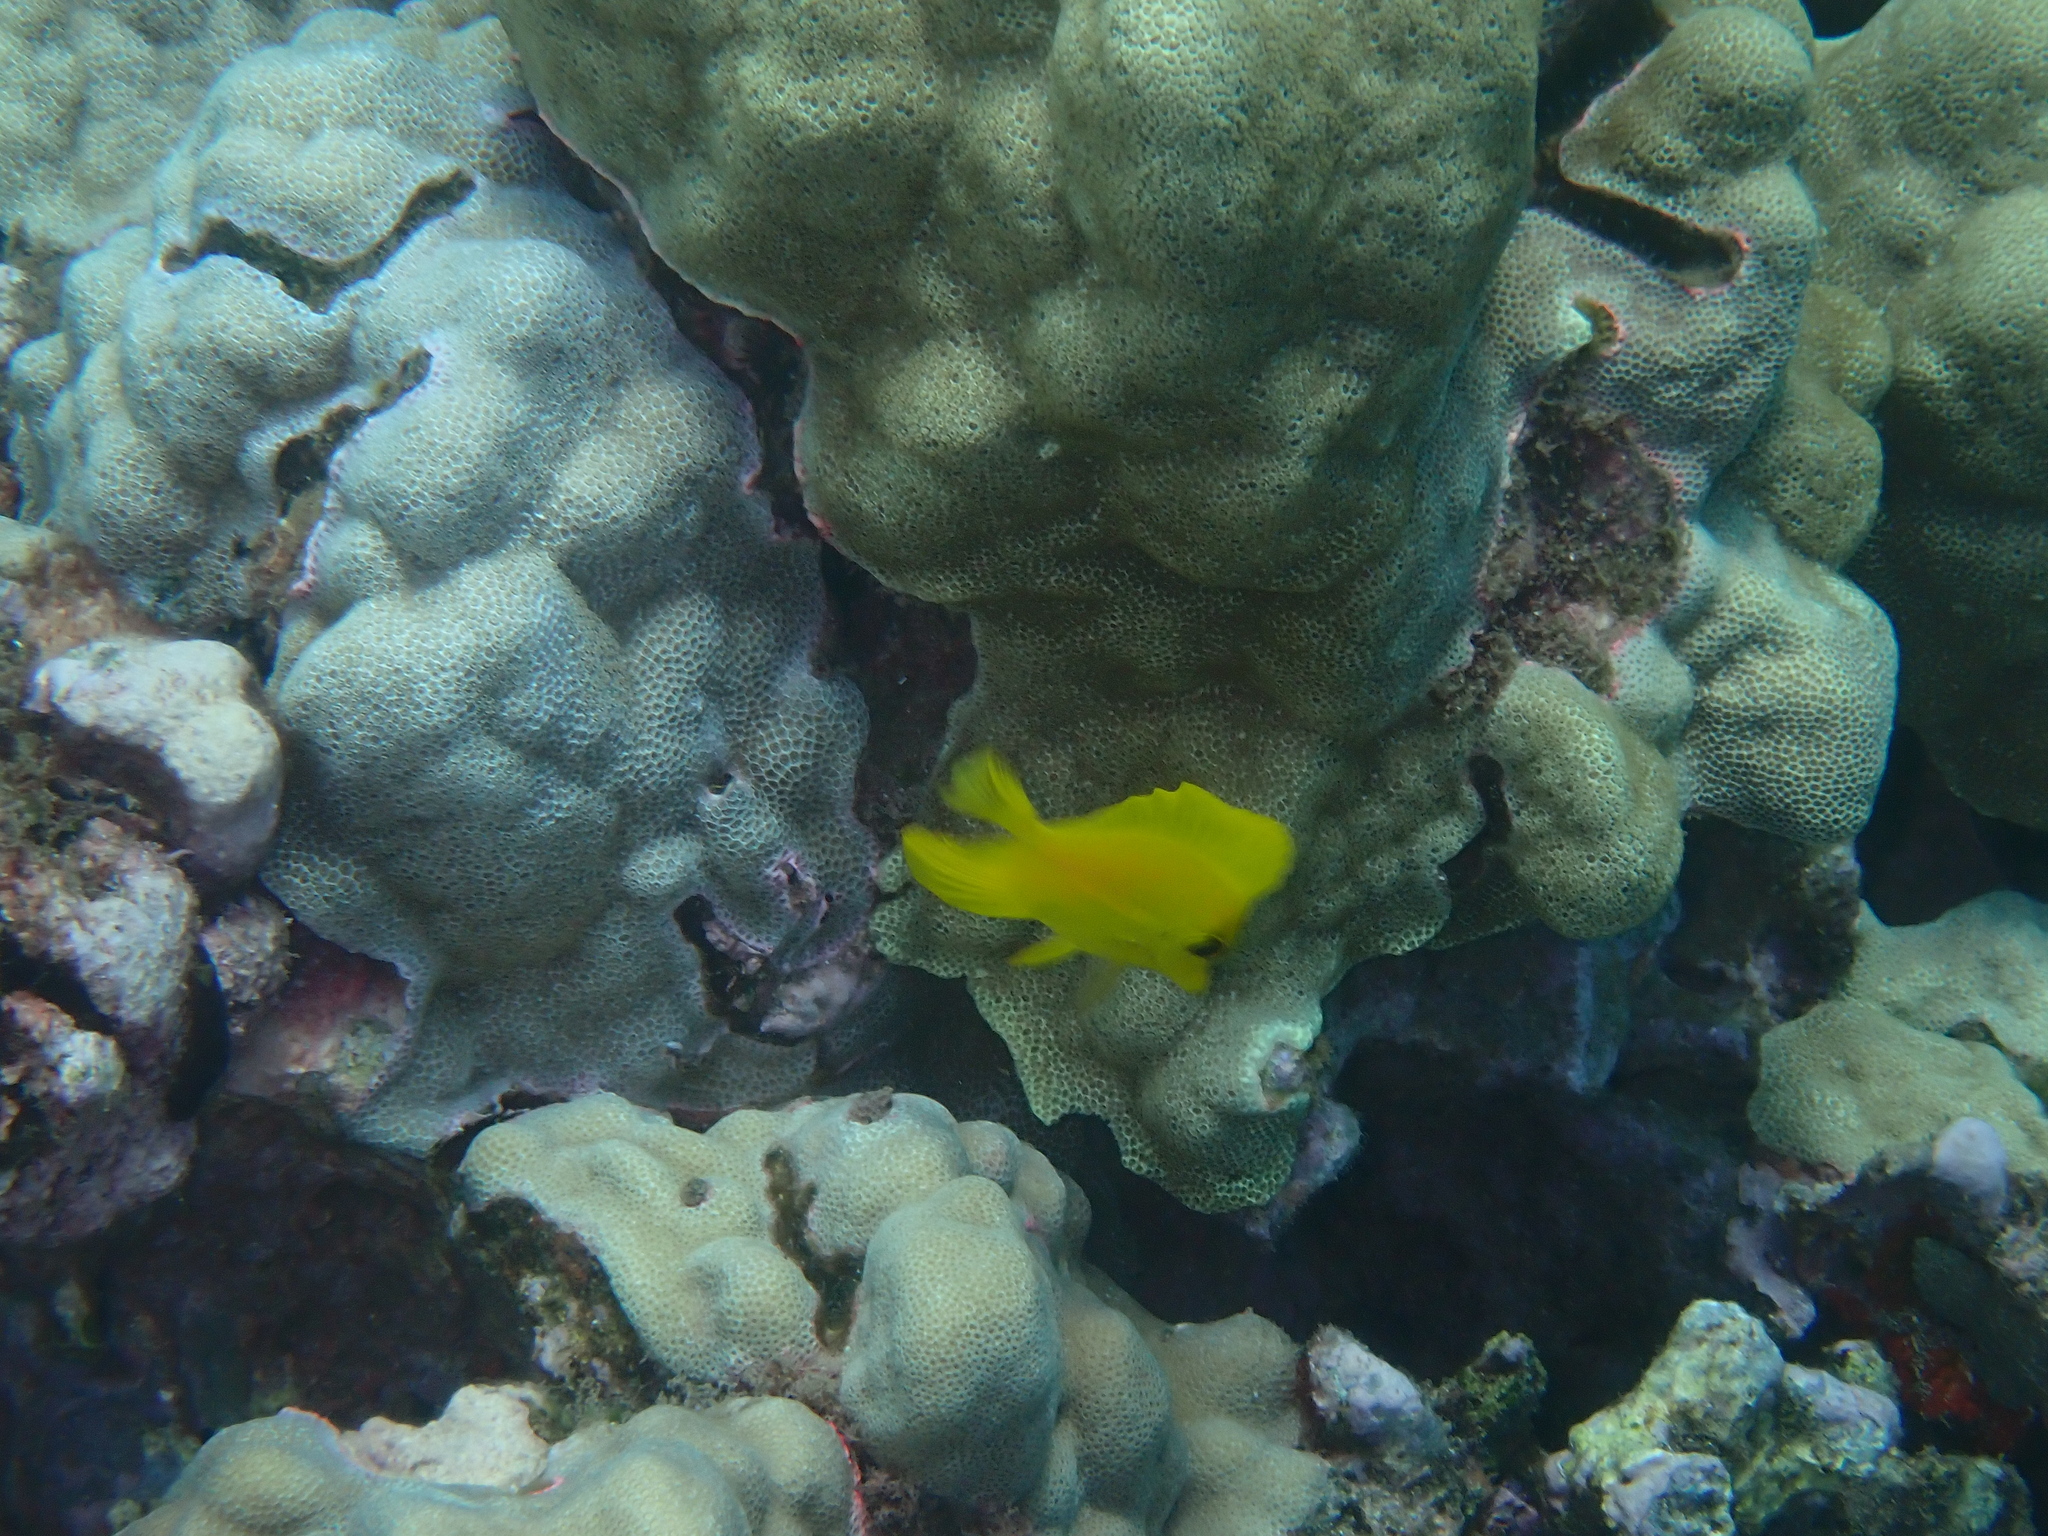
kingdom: Animalia
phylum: Chordata
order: Perciformes
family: Acanthuridae
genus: Zebrasoma
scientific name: Zebrasoma flavescens
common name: Yellow tang
